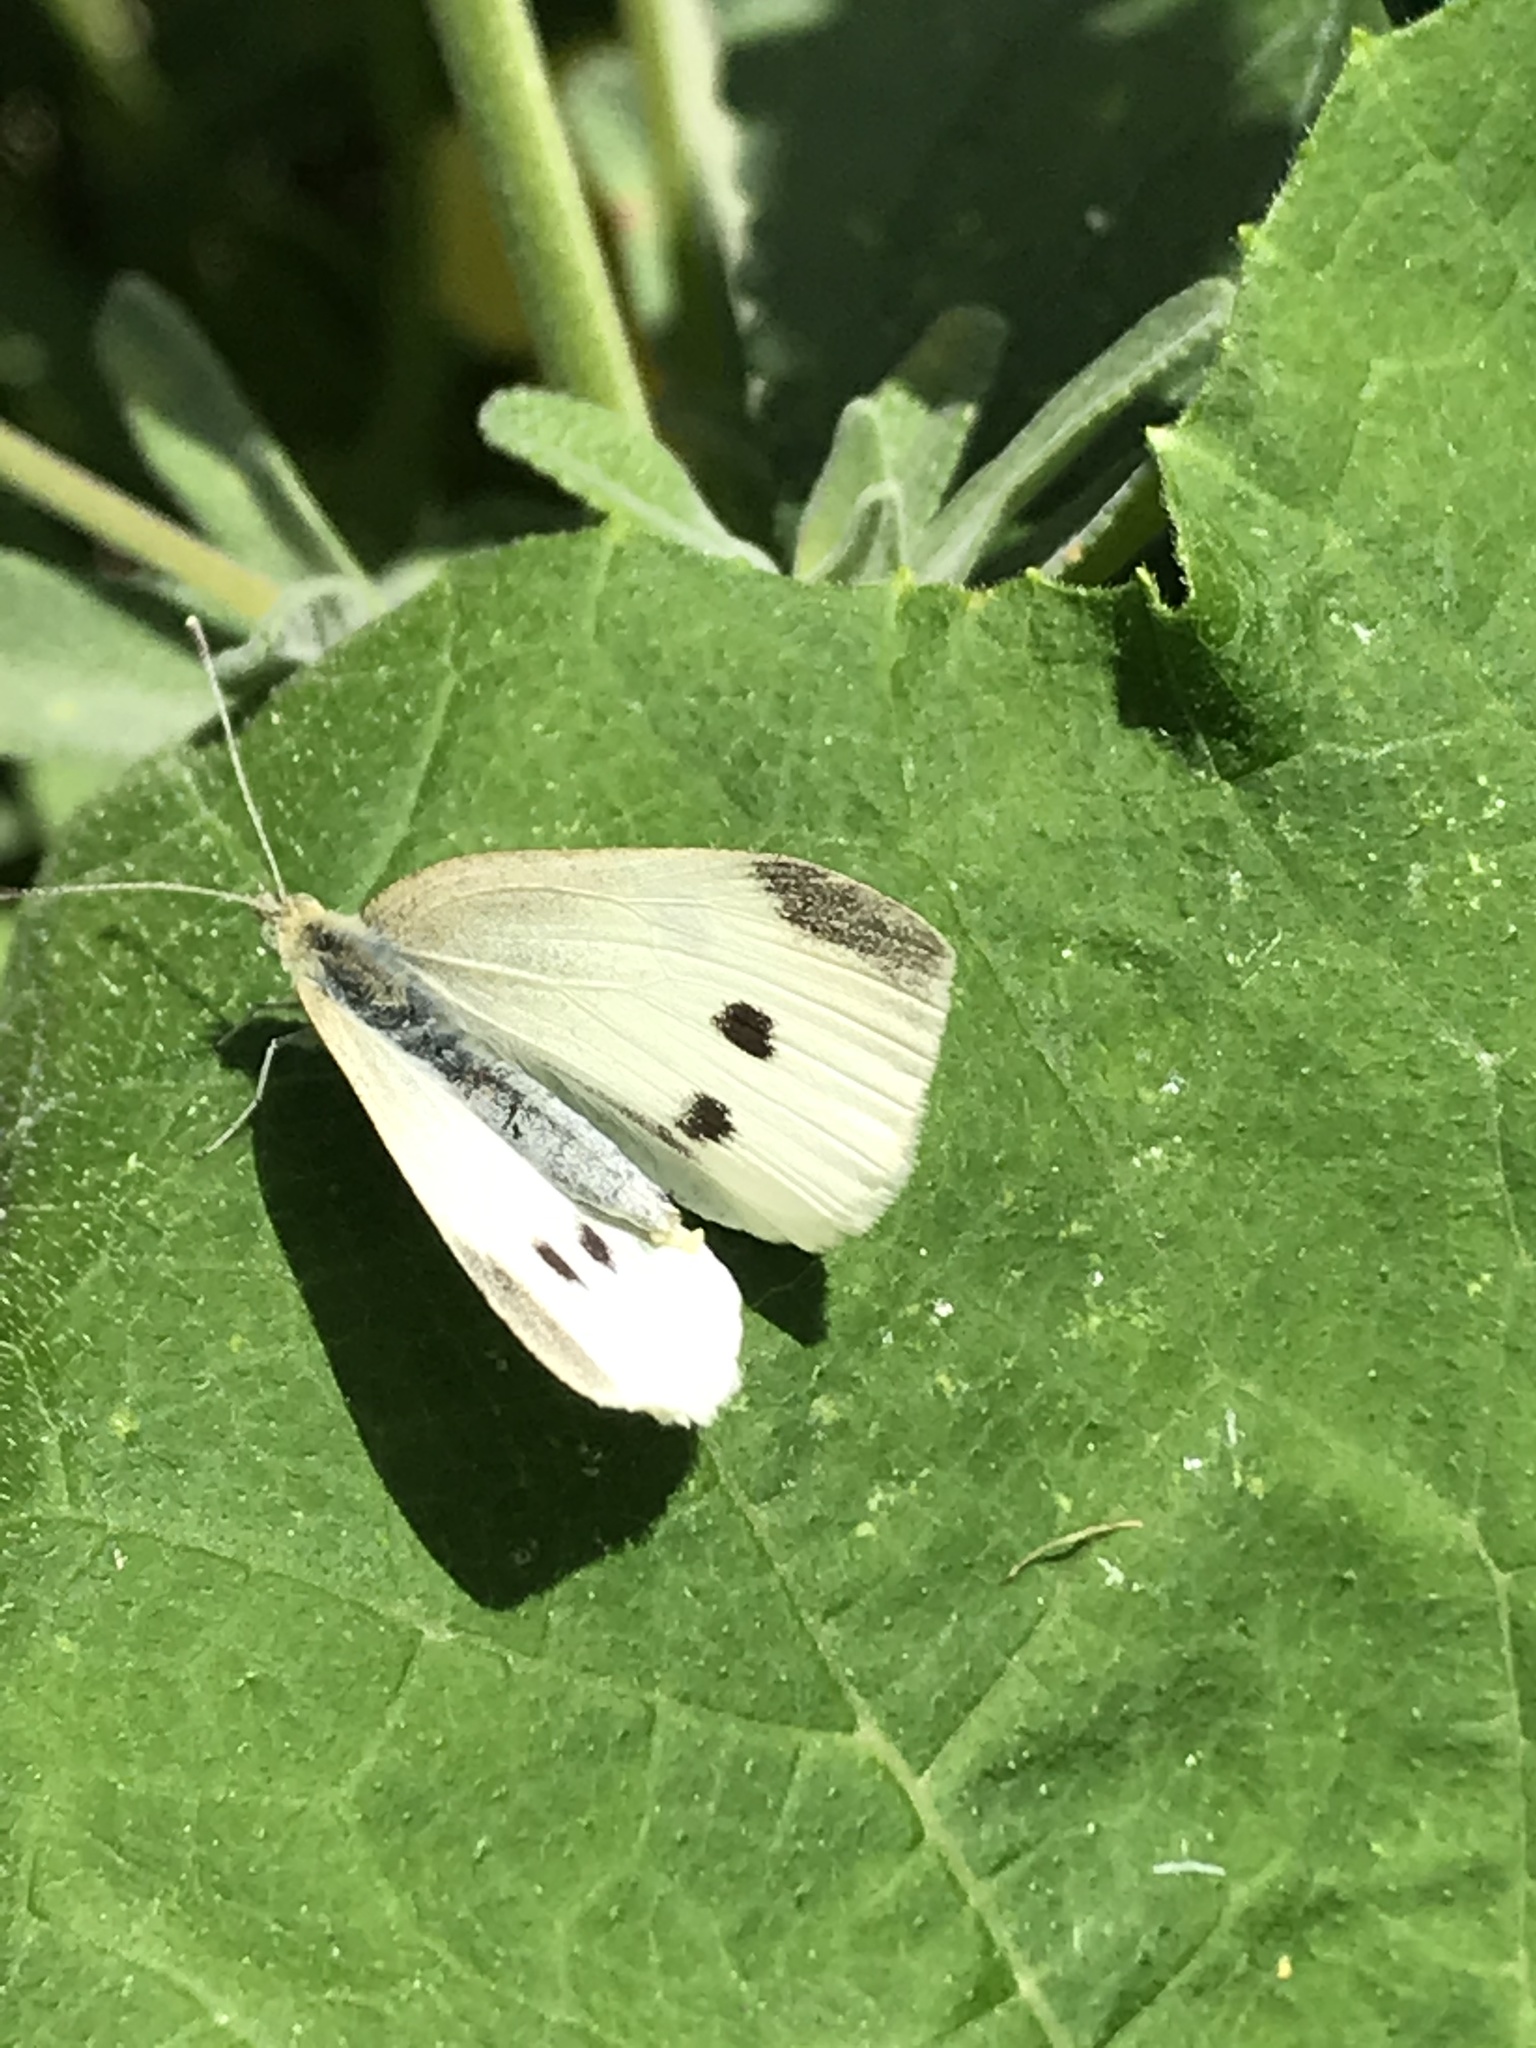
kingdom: Animalia
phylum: Arthropoda
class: Insecta
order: Lepidoptera
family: Pieridae
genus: Pieris
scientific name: Pieris rapae
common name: Small white
